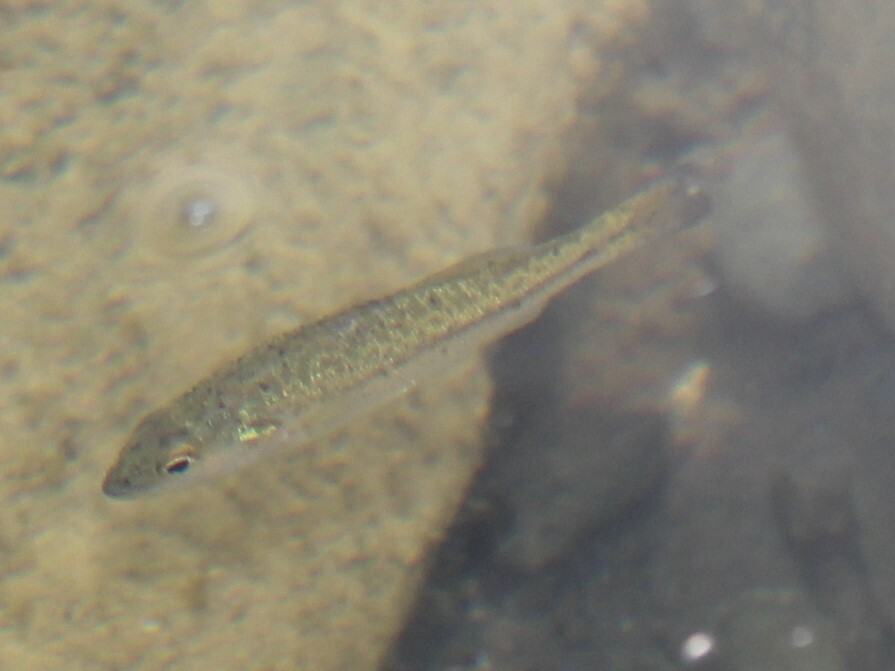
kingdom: Animalia
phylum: Chordata
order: Perciformes
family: Centrarchidae
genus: Micropterus
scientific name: Micropterus
